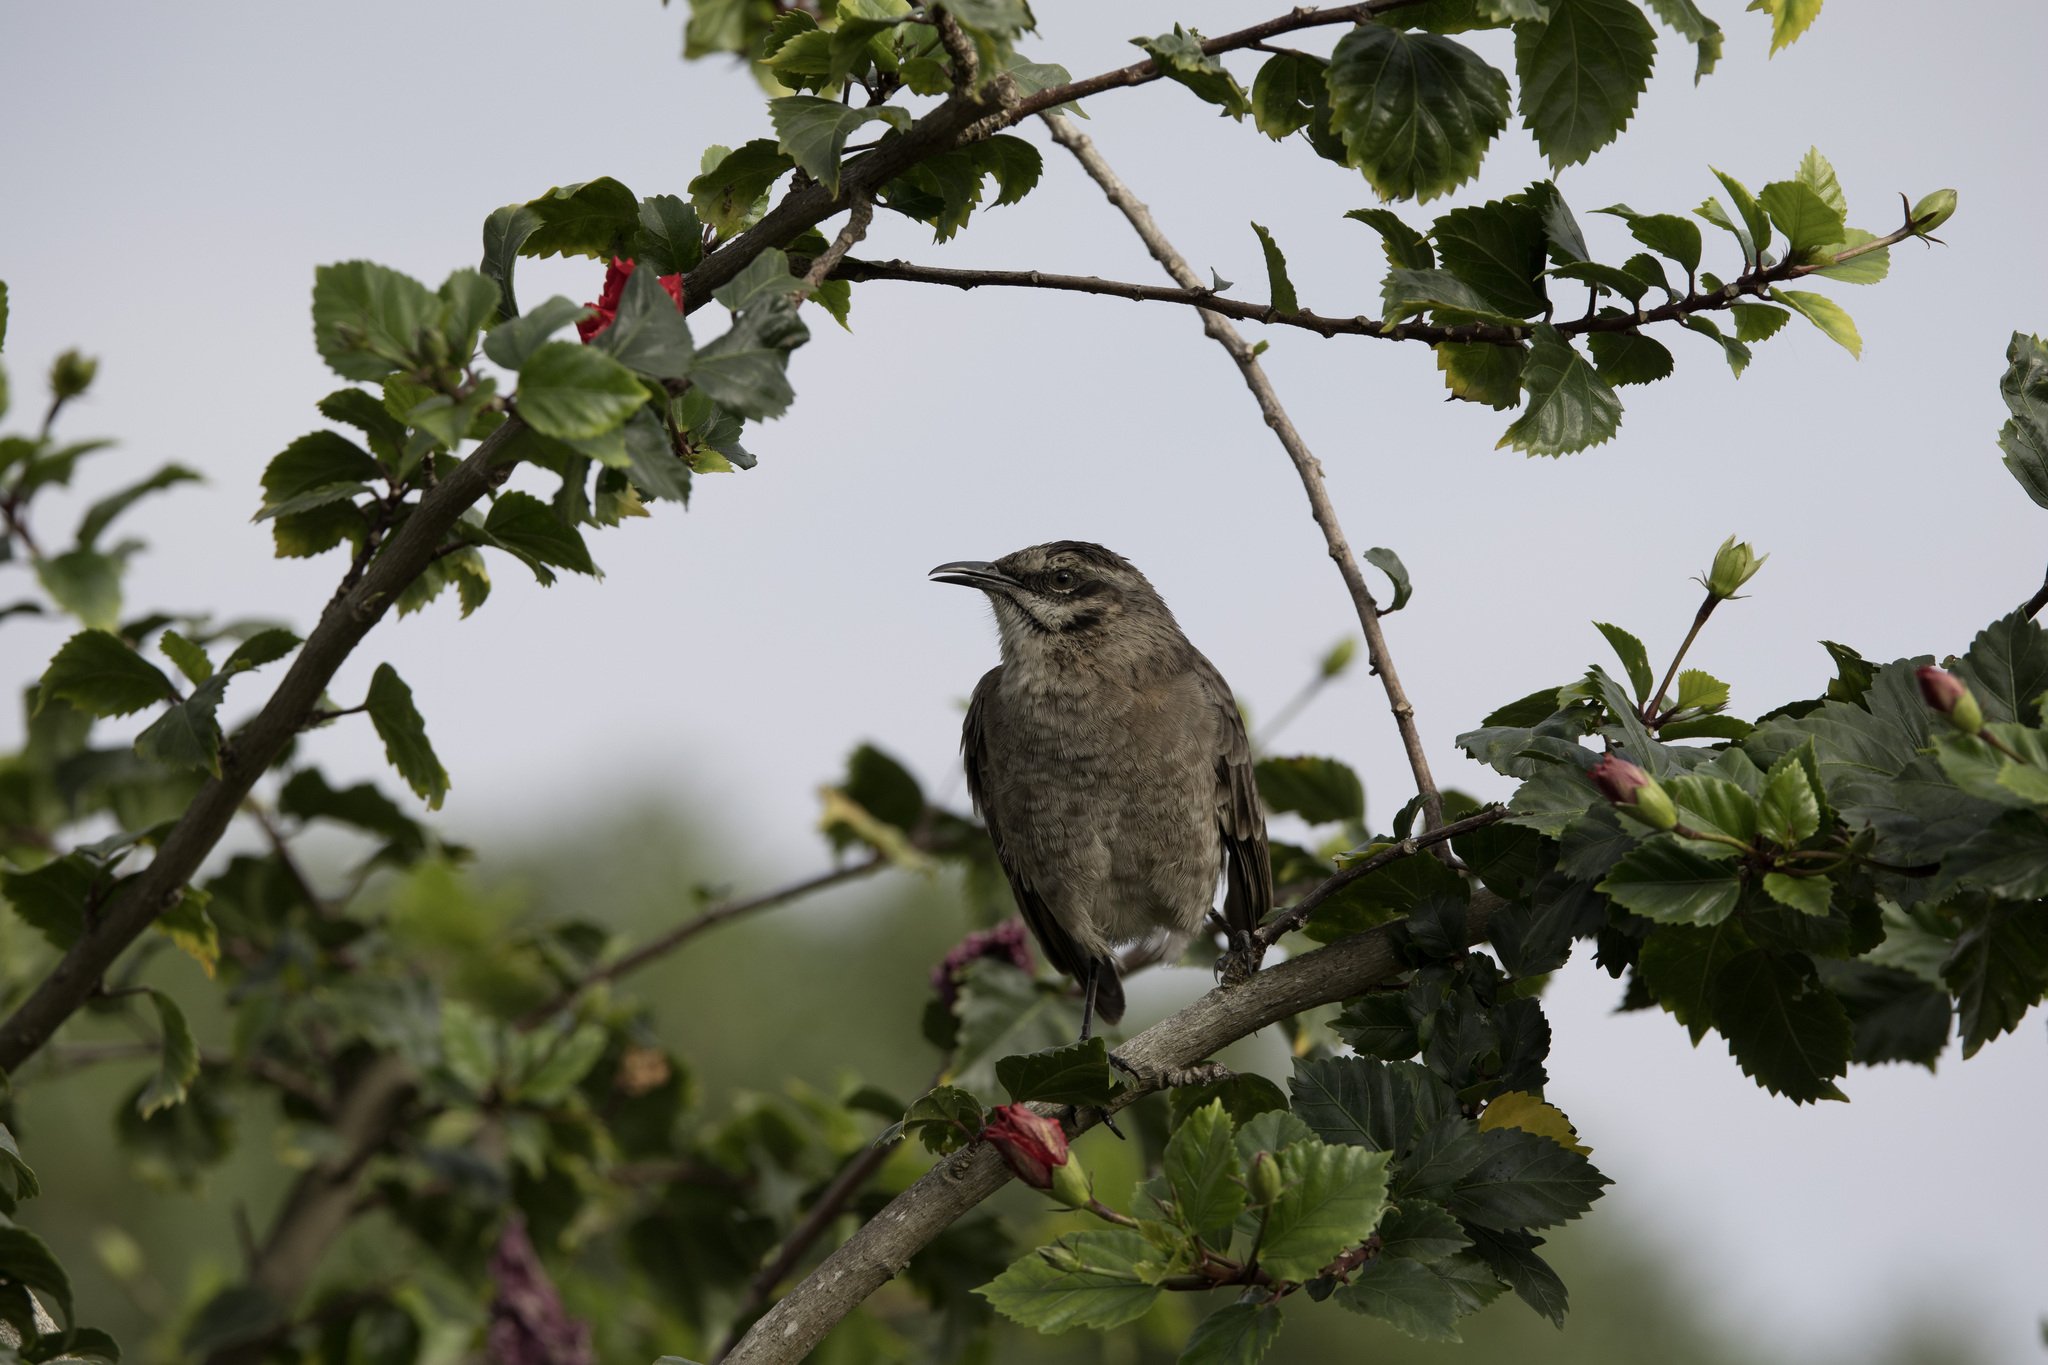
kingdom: Animalia
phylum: Chordata
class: Aves
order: Passeriformes
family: Mimidae
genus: Mimus
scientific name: Mimus longicaudatus
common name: Long-tailed mockingbird
